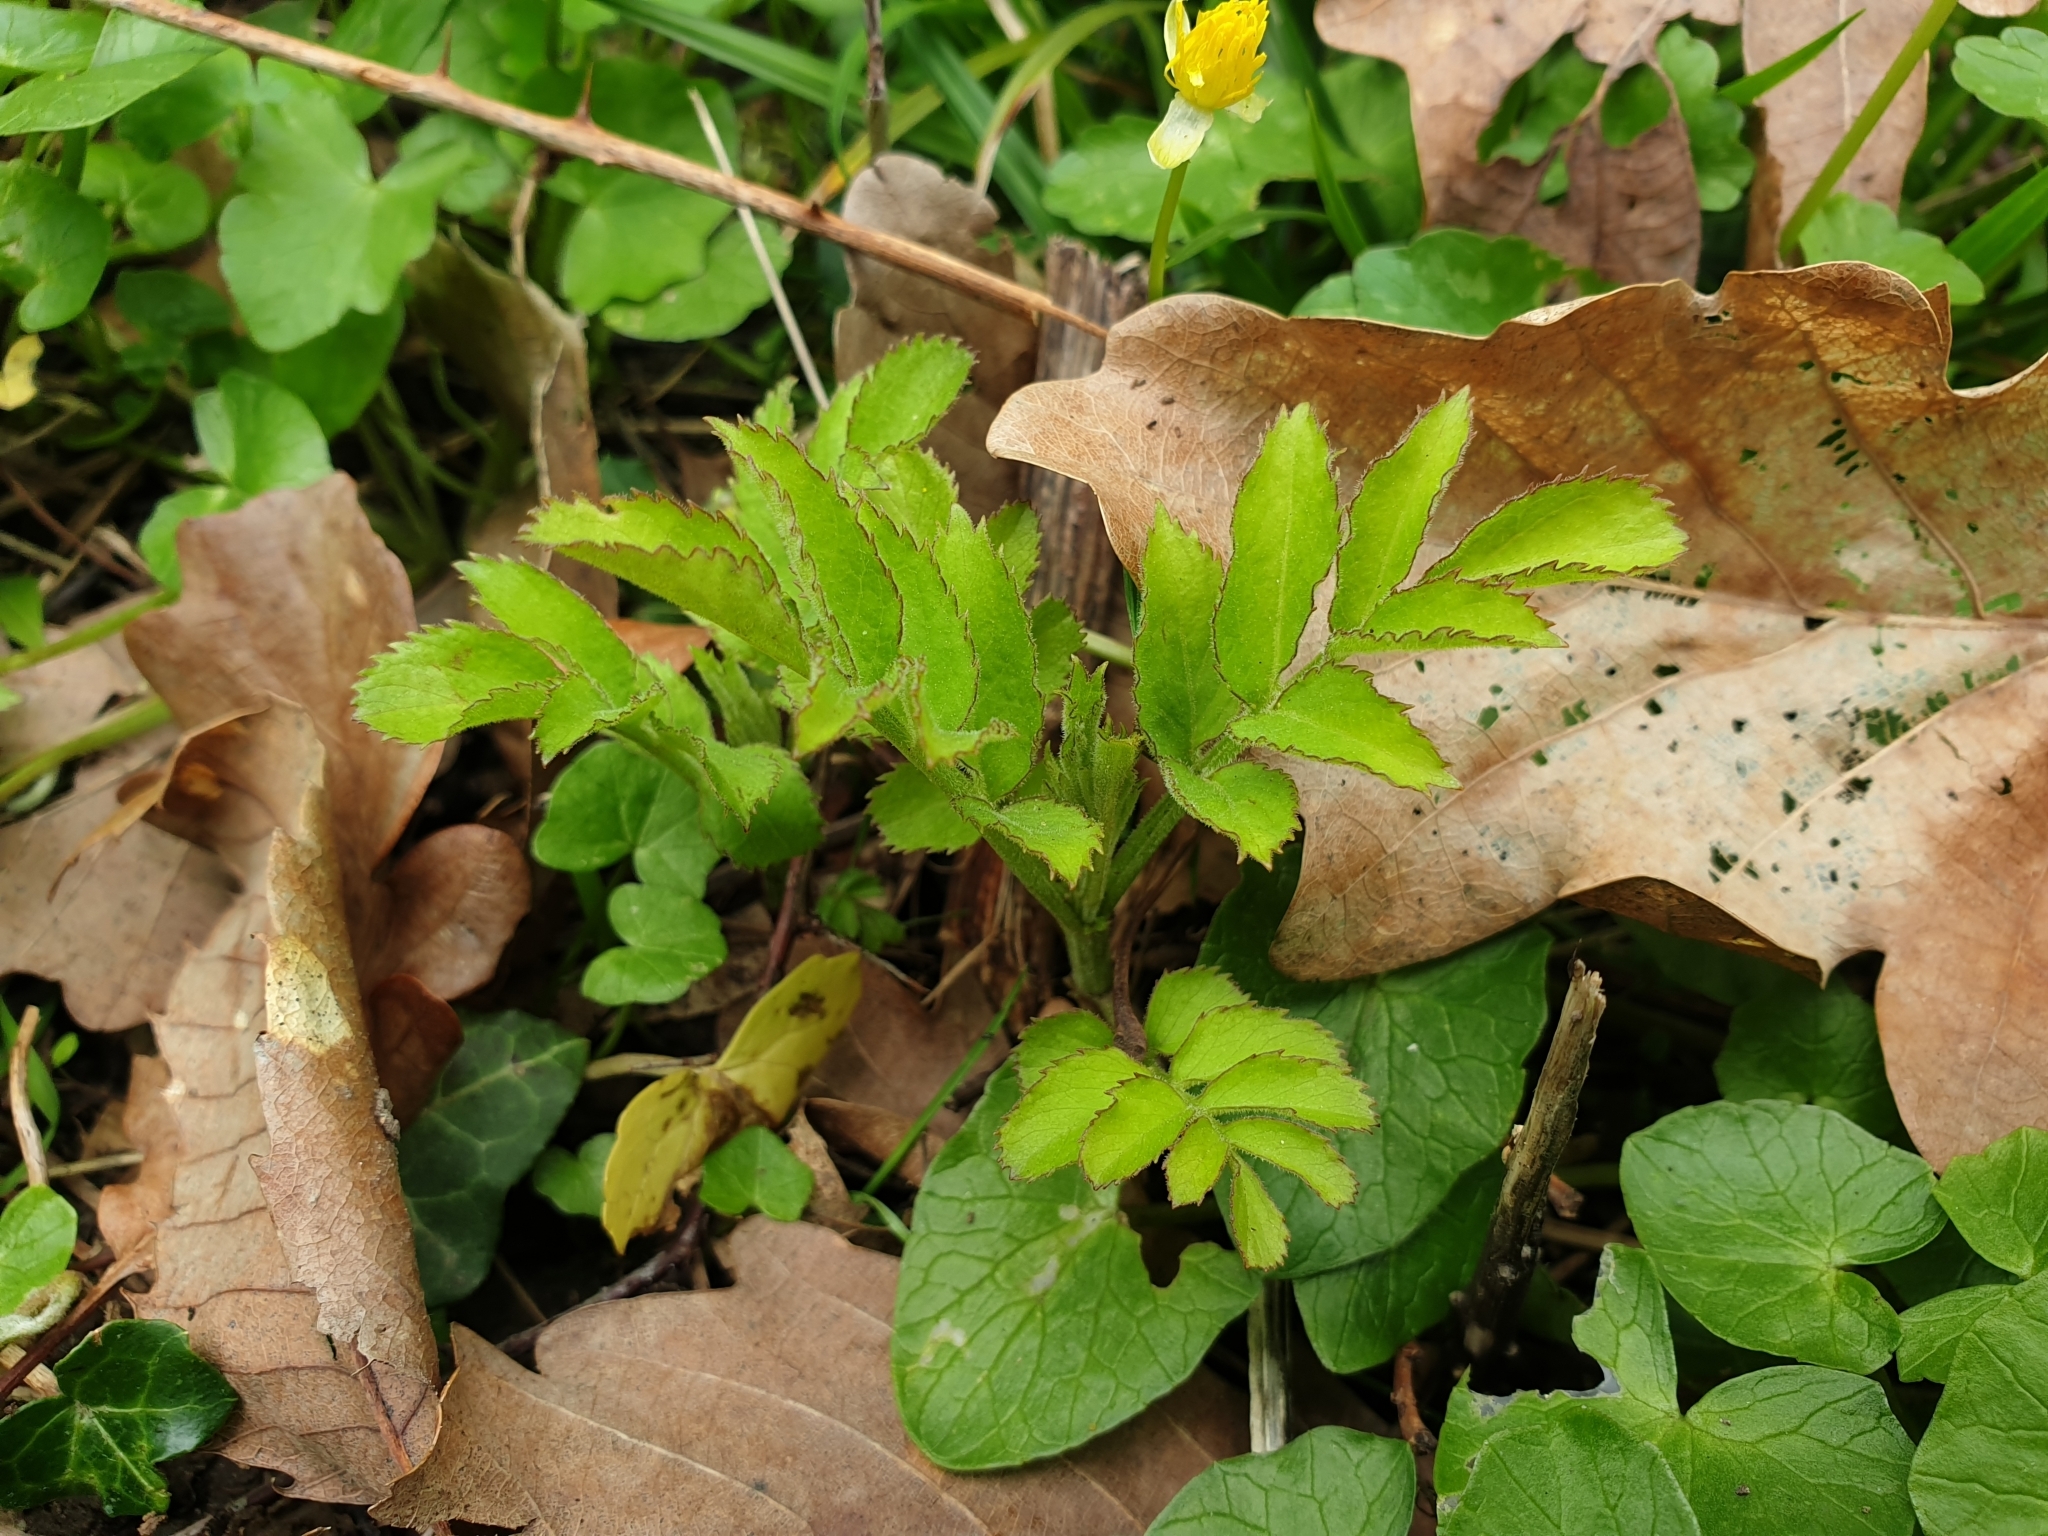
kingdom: Plantae
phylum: Tracheophyta
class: Magnoliopsida
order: Dipsacales
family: Viburnaceae
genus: Sambucus
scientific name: Sambucus ebulus
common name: Dwarf elder
